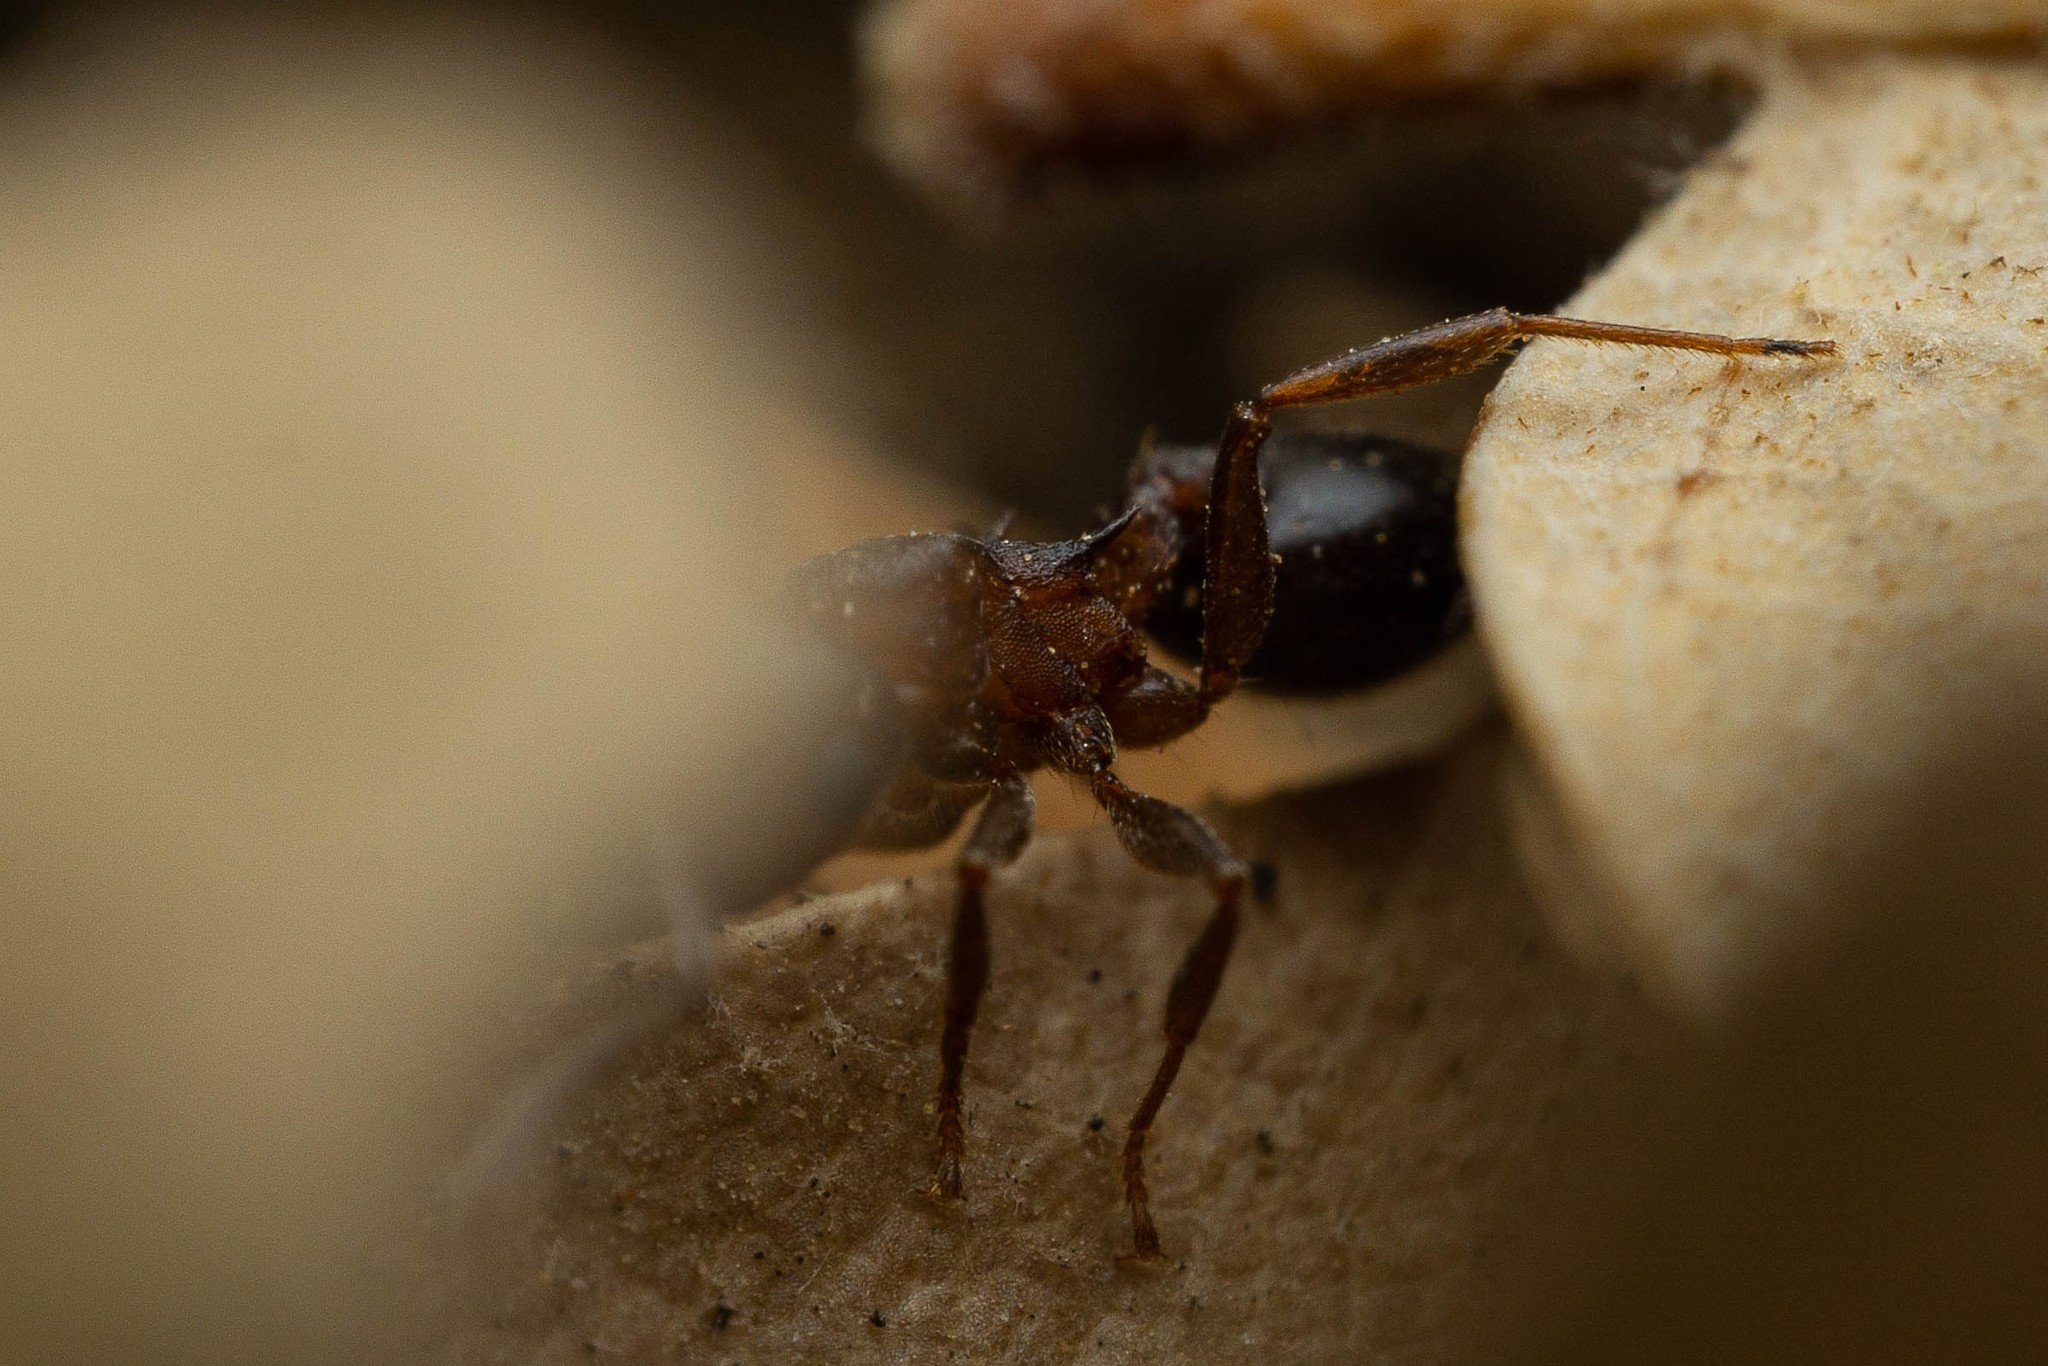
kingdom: Animalia
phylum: Arthropoda
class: Insecta
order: Hymenoptera
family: Formicidae
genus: Crematogaster
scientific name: Crematogaster depilis
